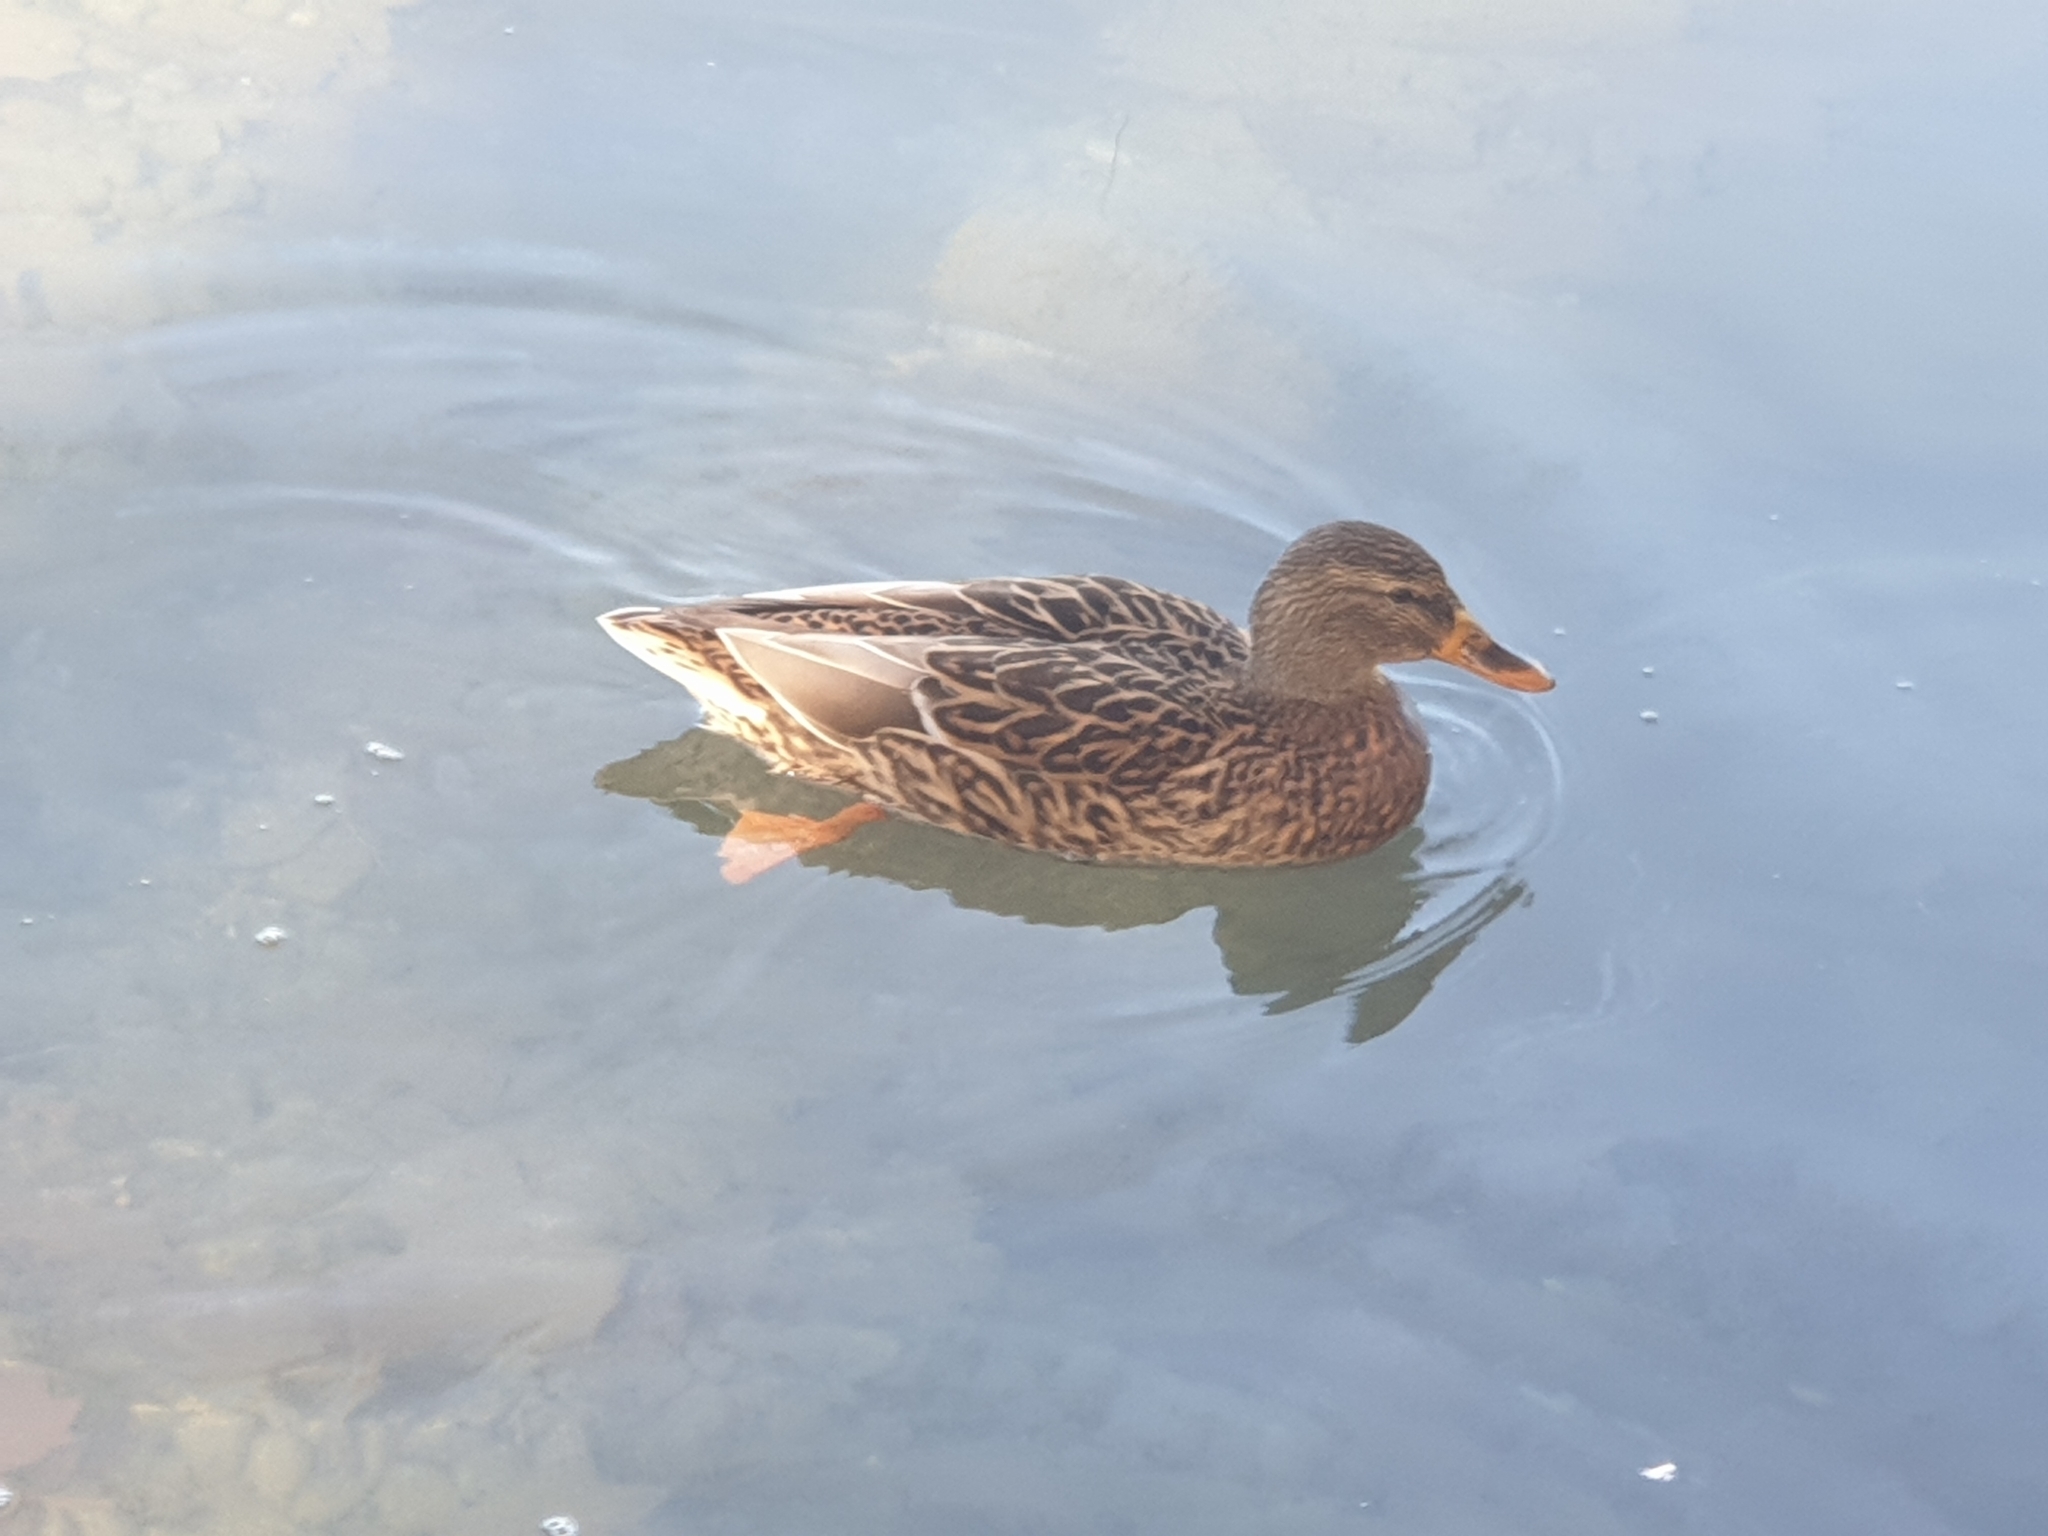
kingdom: Animalia
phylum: Chordata
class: Aves
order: Anseriformes
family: Anatidae
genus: Anas
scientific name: Anas platyrhynchos
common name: Mallard
